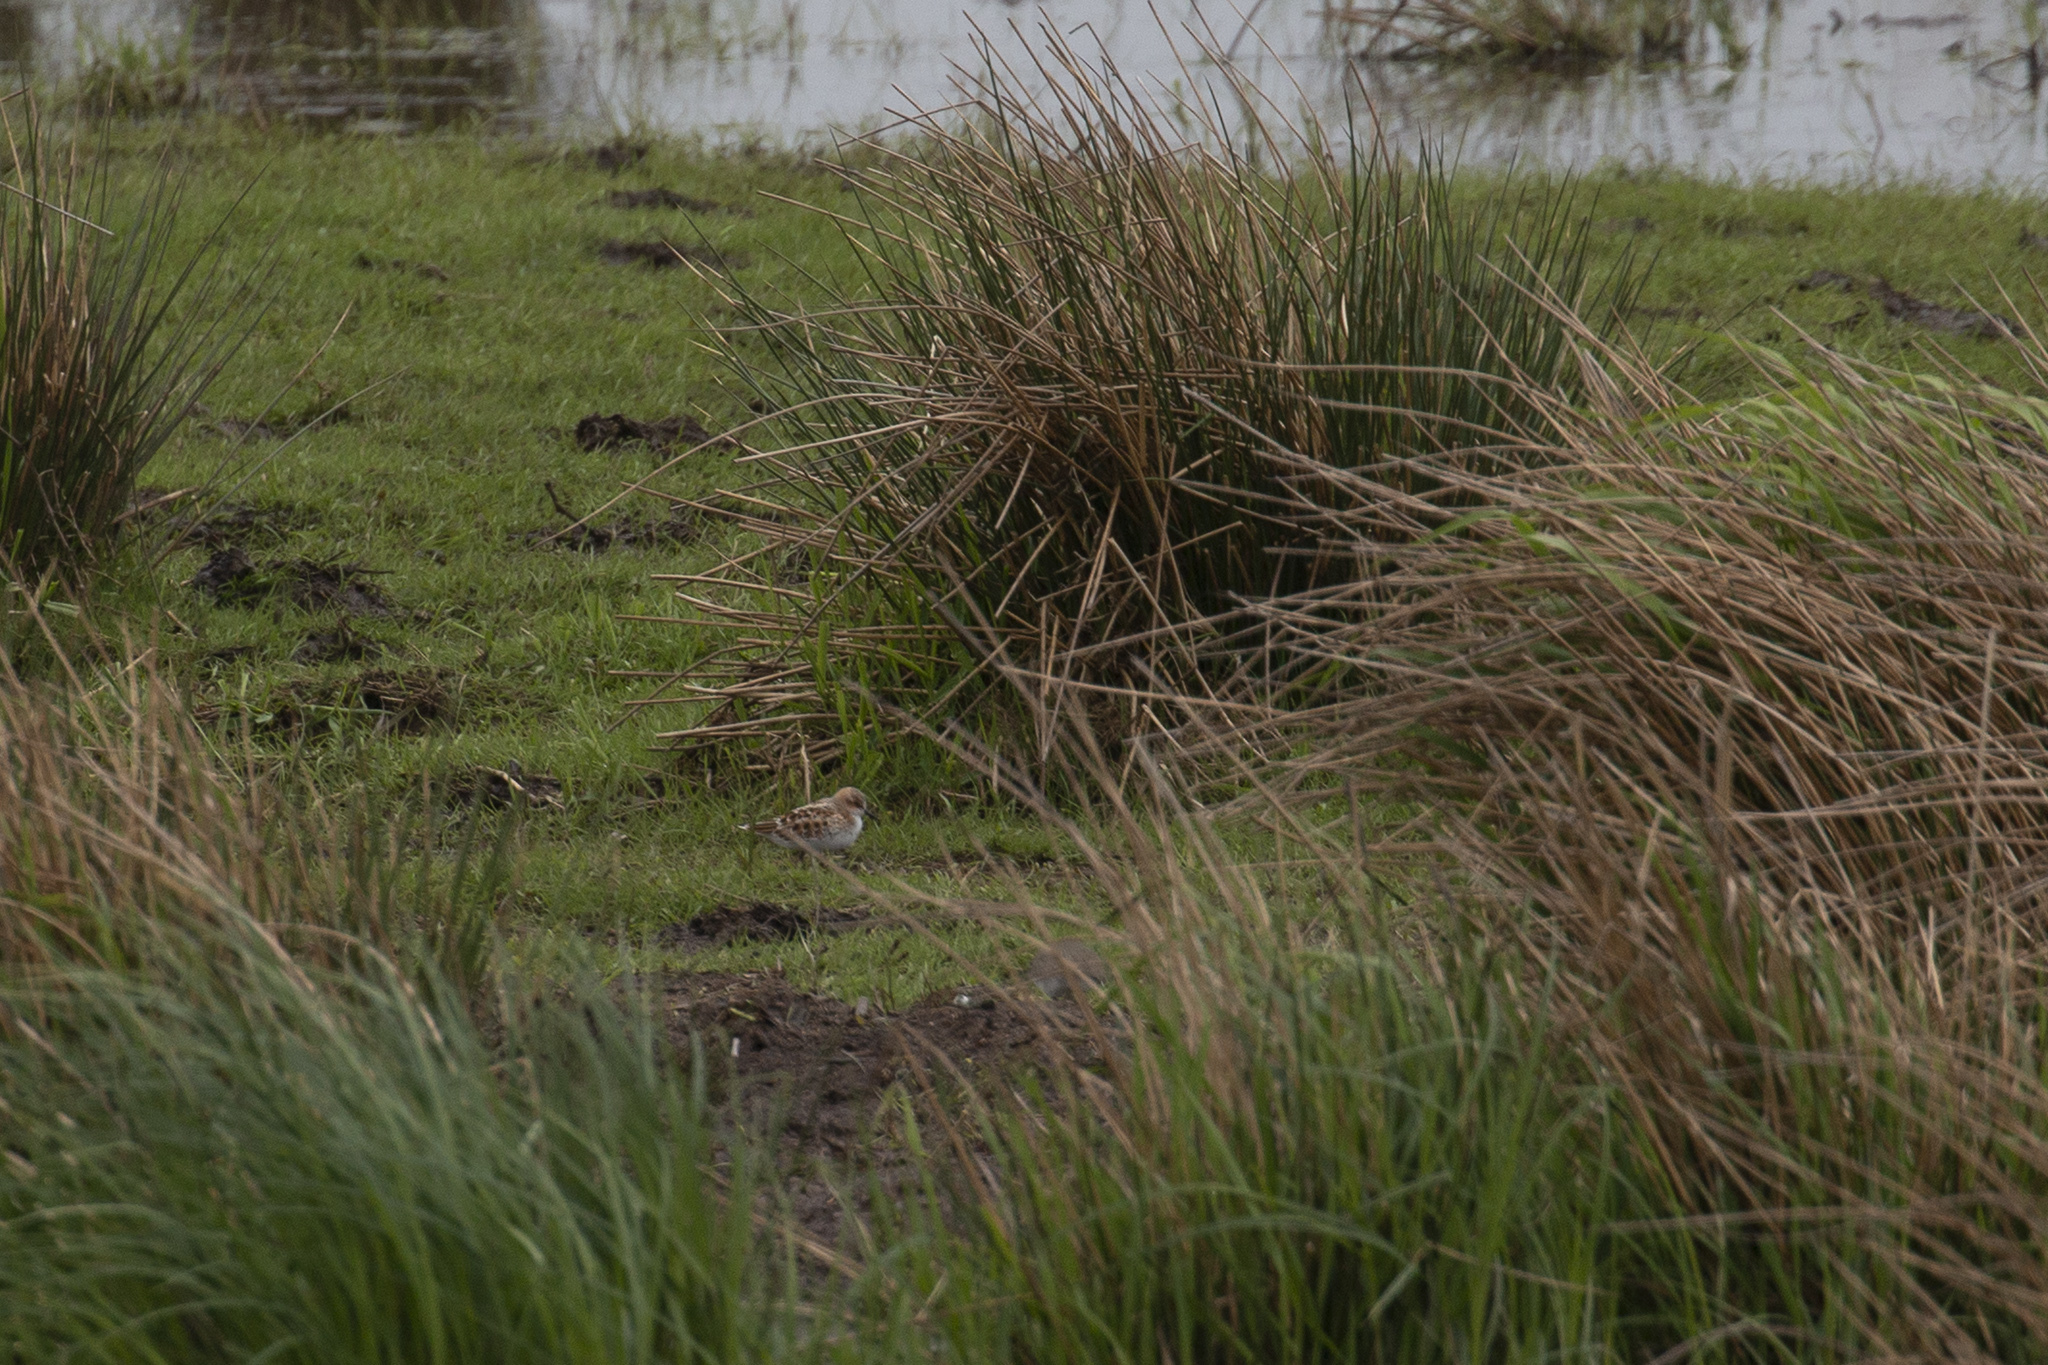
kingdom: Animalia
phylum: Chordata
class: Aves
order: Charadriiformes
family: Scolopacidae
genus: Calidris
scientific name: Calidris minuta
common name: Little stint
